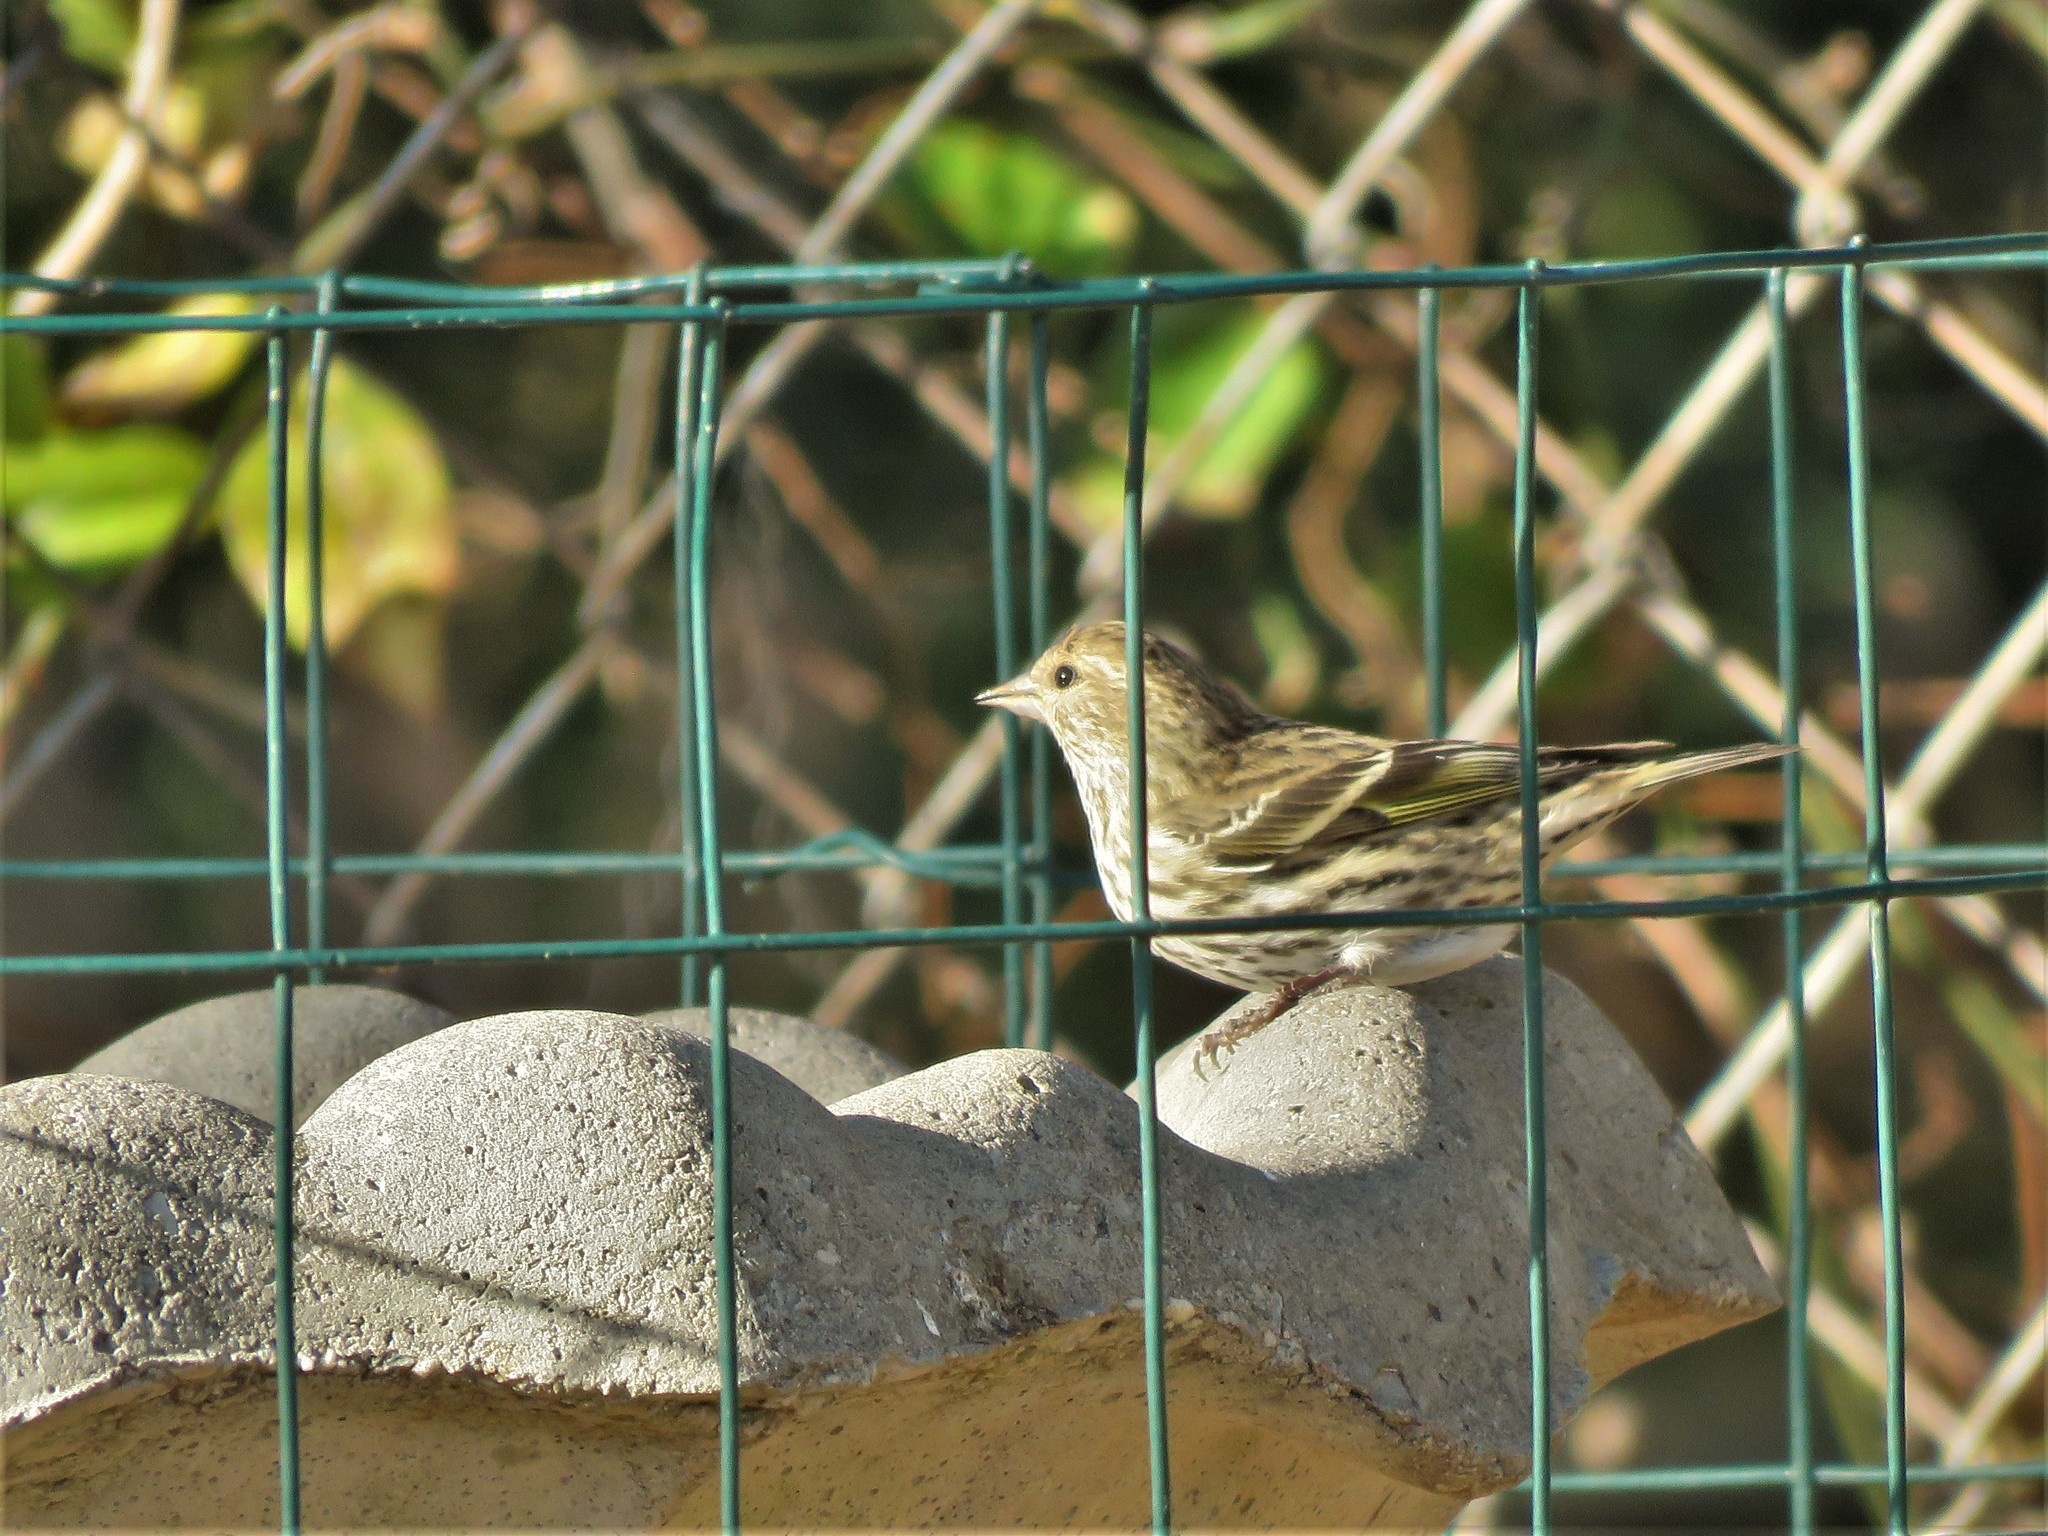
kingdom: Animalia
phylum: Chordata
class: Aves
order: Passeriformes
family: Fringillidae
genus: Spinus
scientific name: Spinus pinus
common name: Pine siskin
